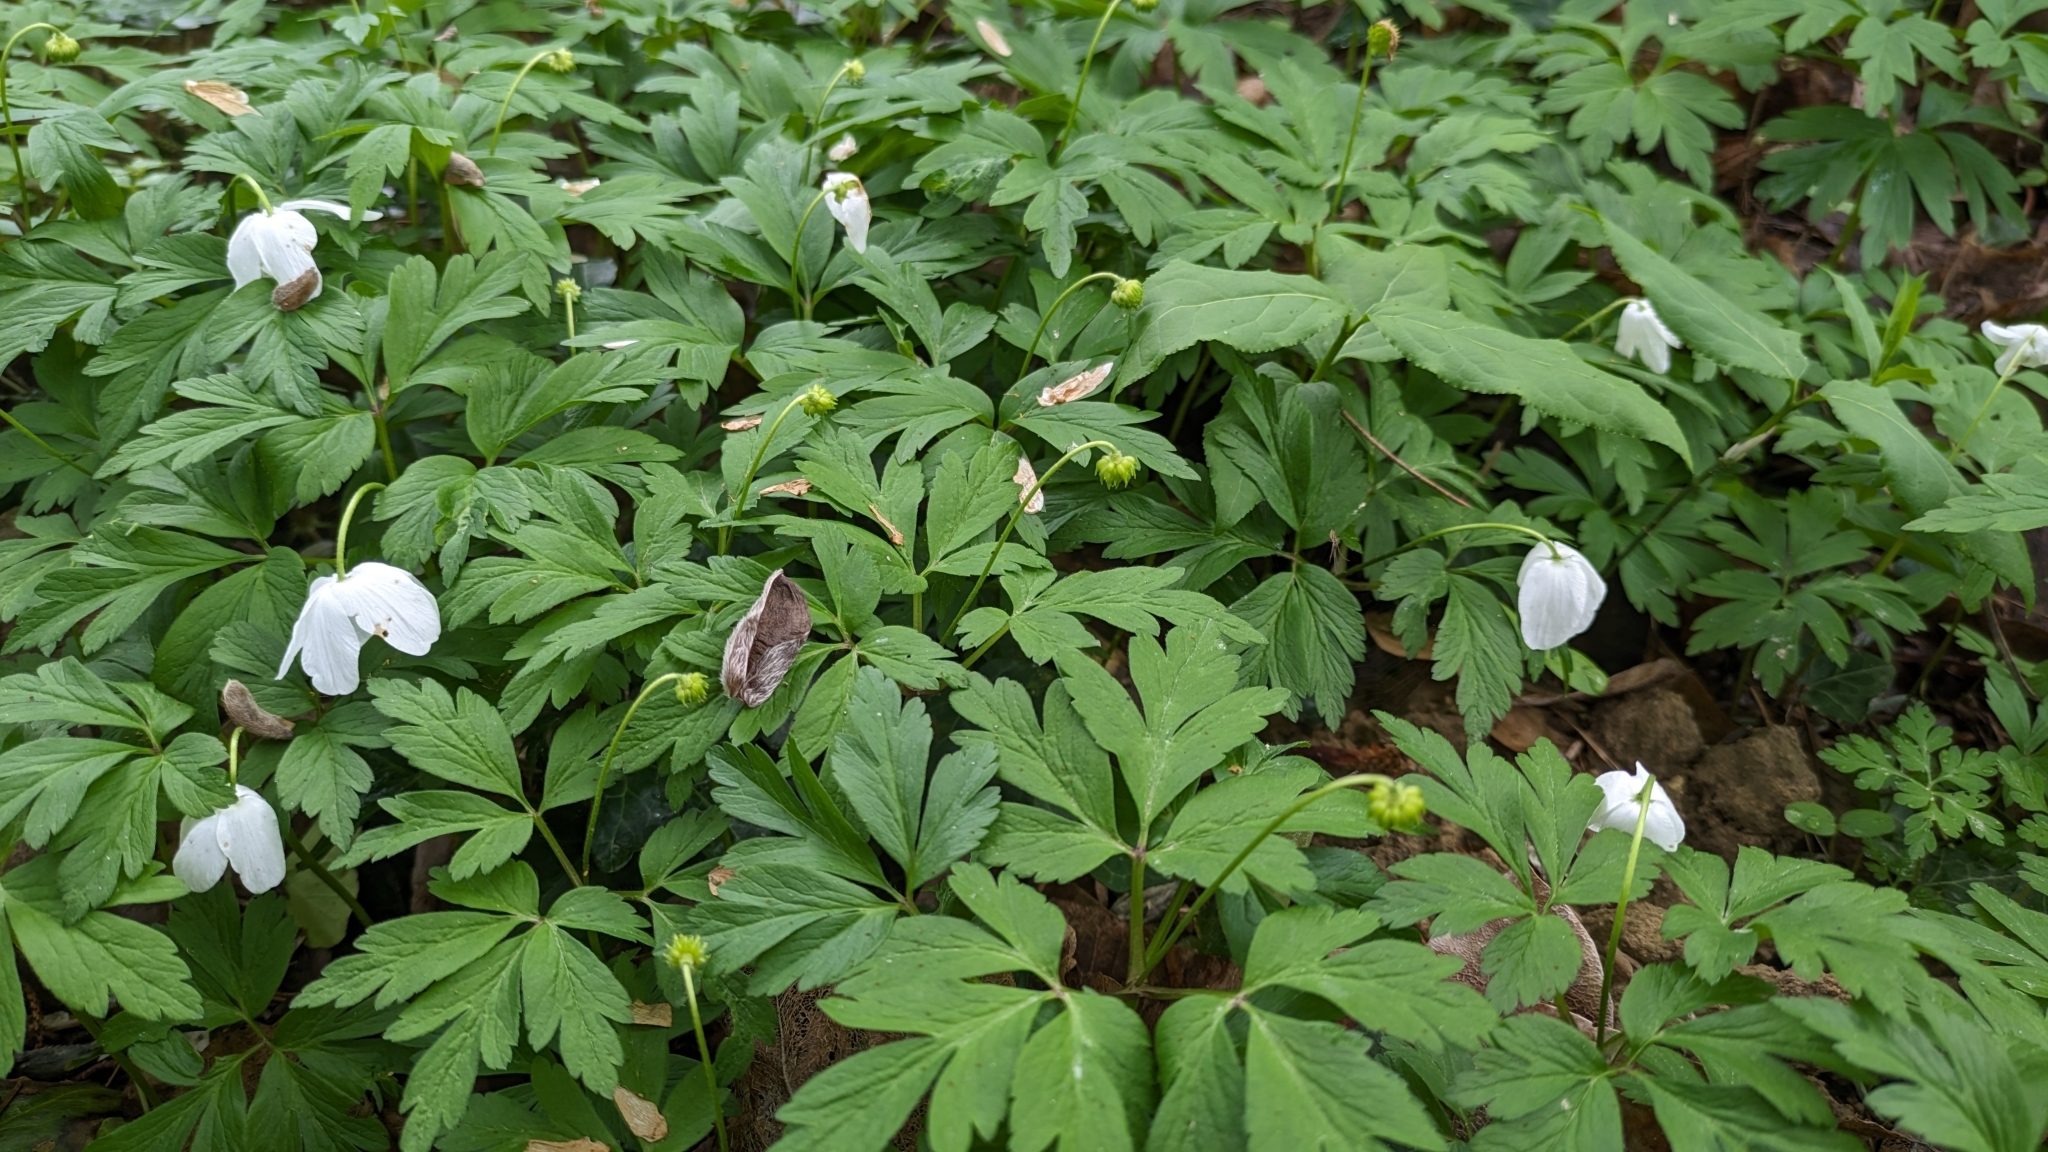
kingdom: Plantae
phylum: Tracheophyta
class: Magnoliopsida
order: Ranunculales
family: Ranunculaceae
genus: Anemone
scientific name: Anemone nemorosa
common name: Wood anemone
